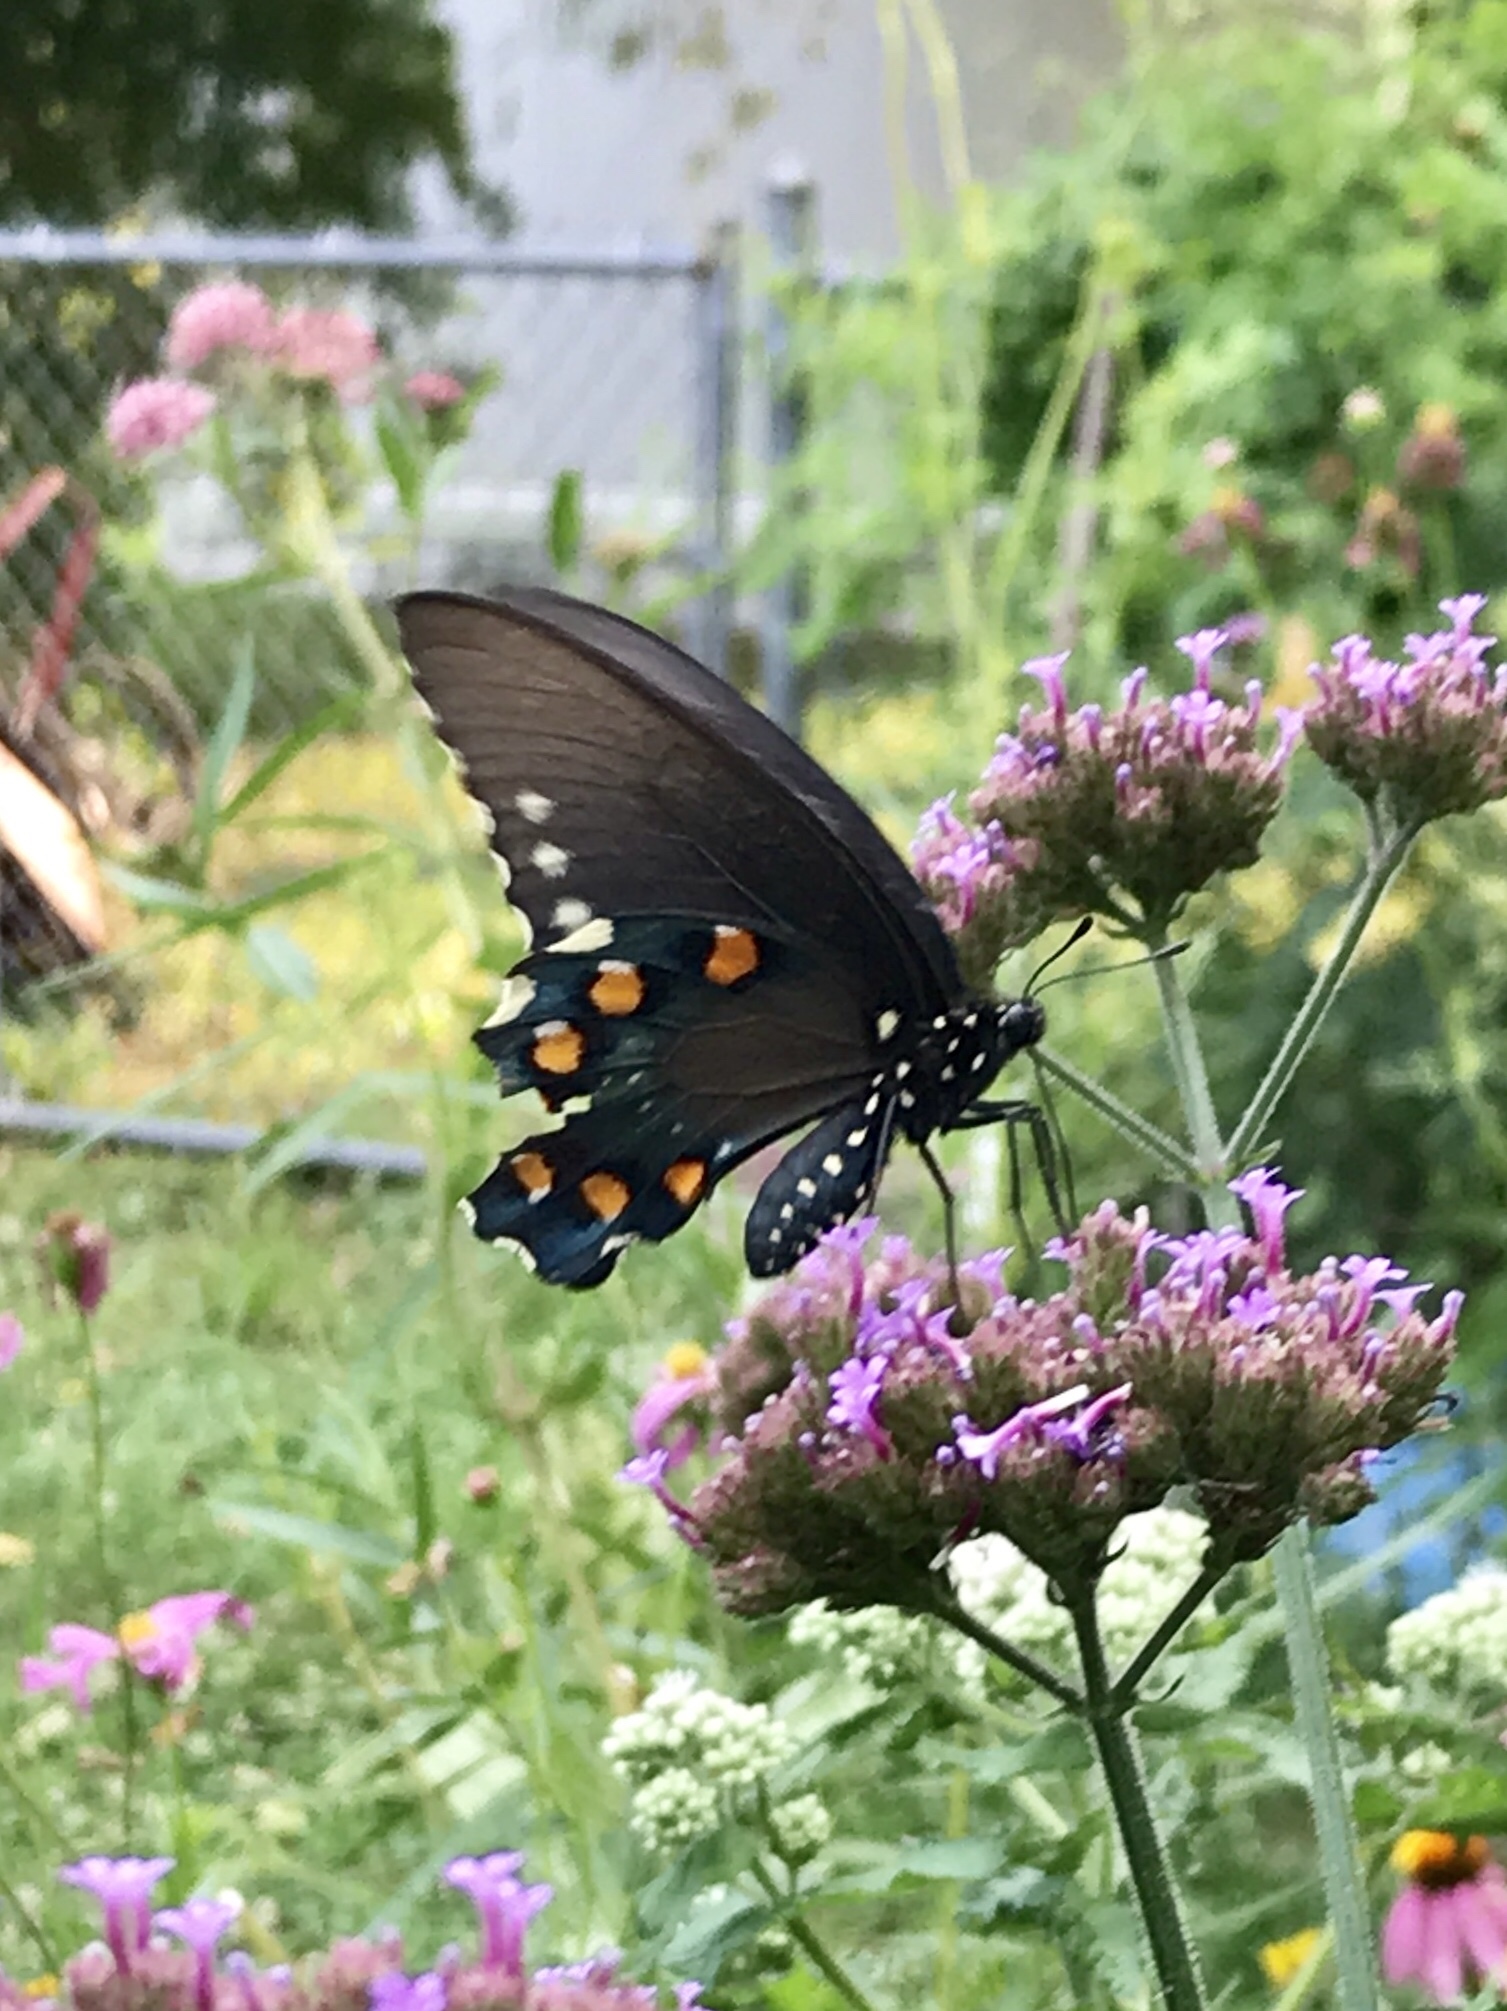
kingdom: Animalia
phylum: Arthropoda
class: Insecta
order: Lepidoptera
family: Papilionidae
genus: Battus
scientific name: Battus philenor
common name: Pipevine swallowtail
